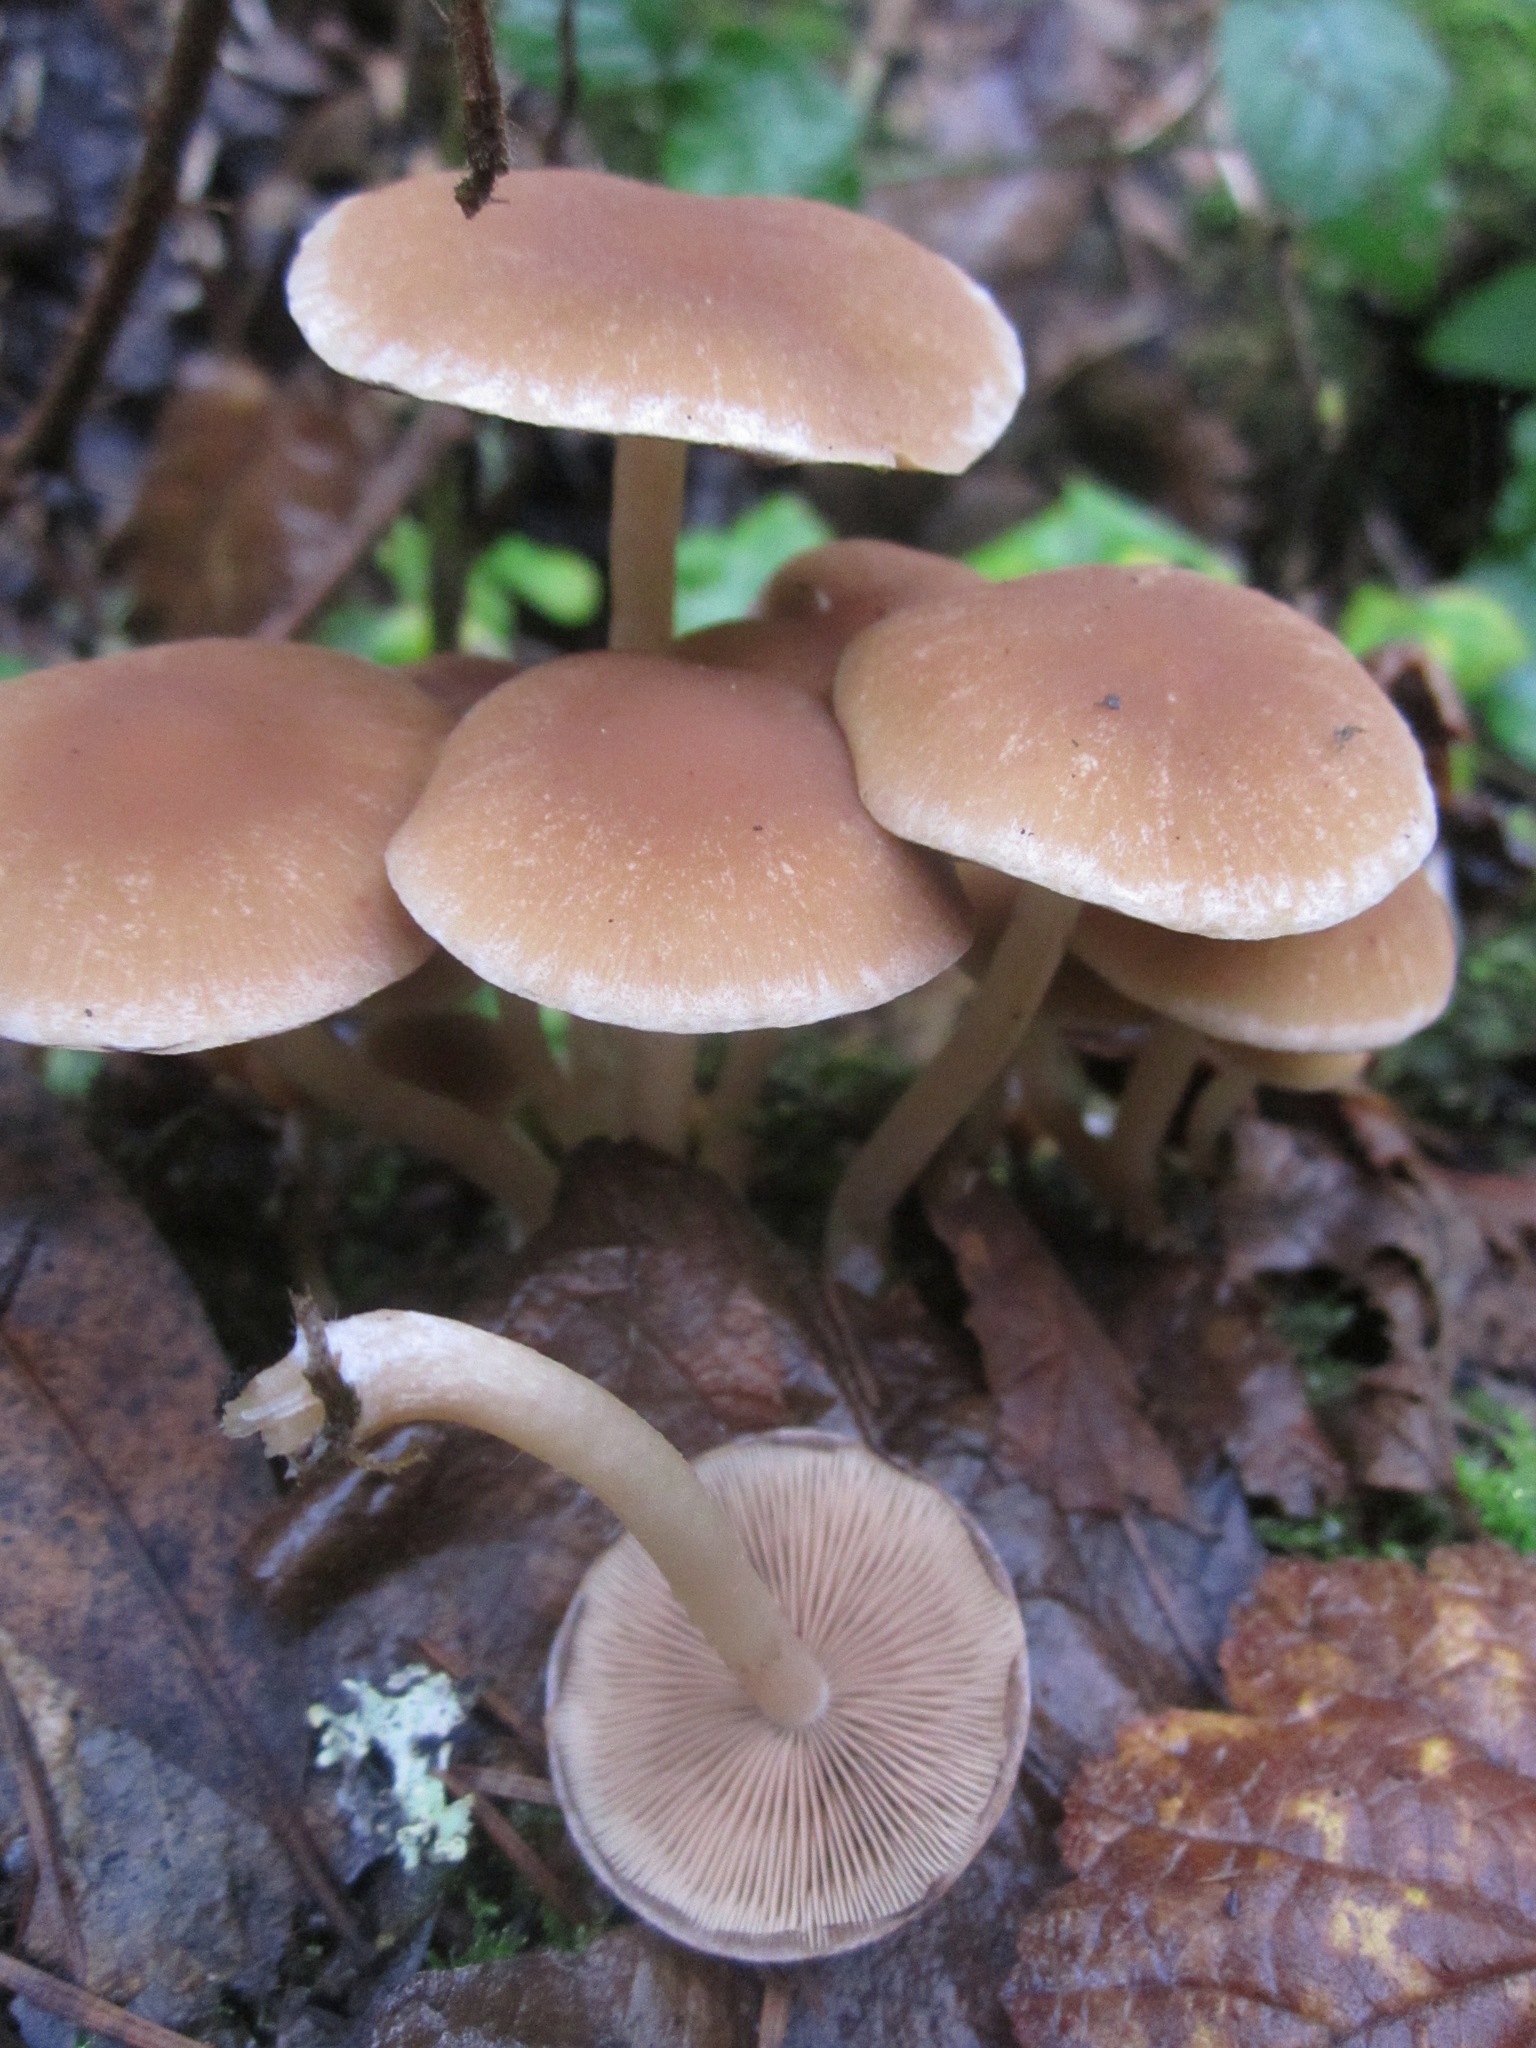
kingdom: Fungi
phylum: Basidiomycota
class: Agaricomycetes
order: Agaricales
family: Psathyrellaceae
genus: Psathyrella
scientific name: Psathyrella piluliformis
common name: Common stump brittlestem
